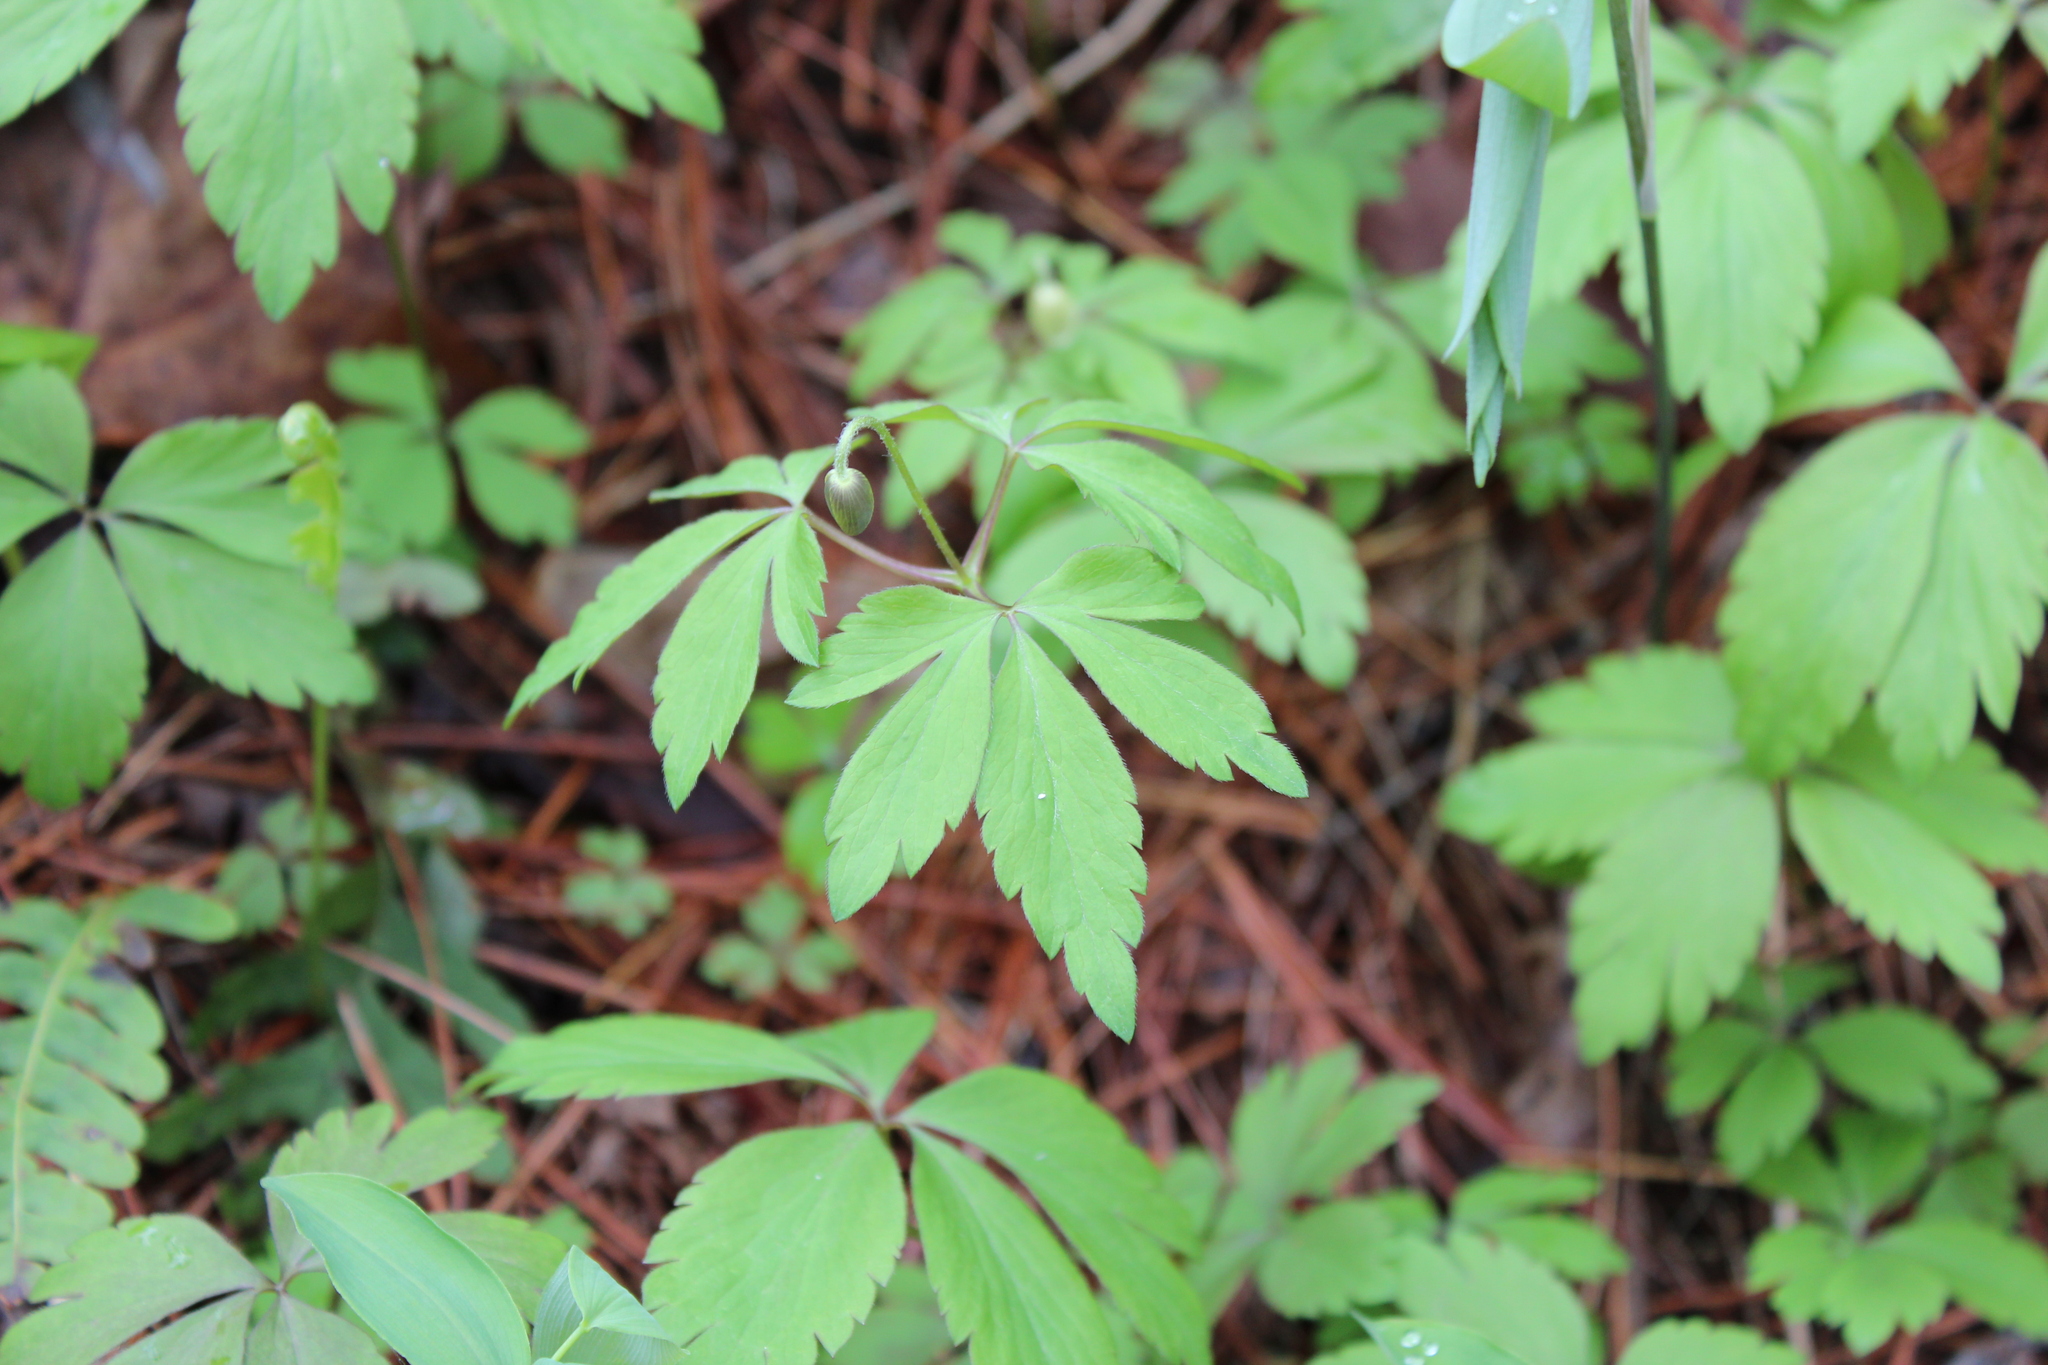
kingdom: Plantae
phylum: Tracheophyta
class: Magnoliopsida
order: Ranunculales
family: Ranunculaceae
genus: Anemone
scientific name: Anemone quinquefolia
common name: Wood anemone
